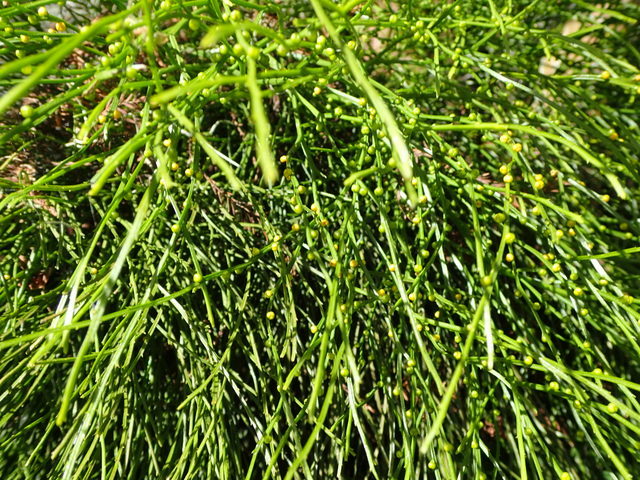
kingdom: Plantae
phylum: Tracheophyta
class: Polypodiopsida
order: Psilotales
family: Psilotaceae
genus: Psilotum
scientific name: Psilotum nudum
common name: Skeleton fork fern
